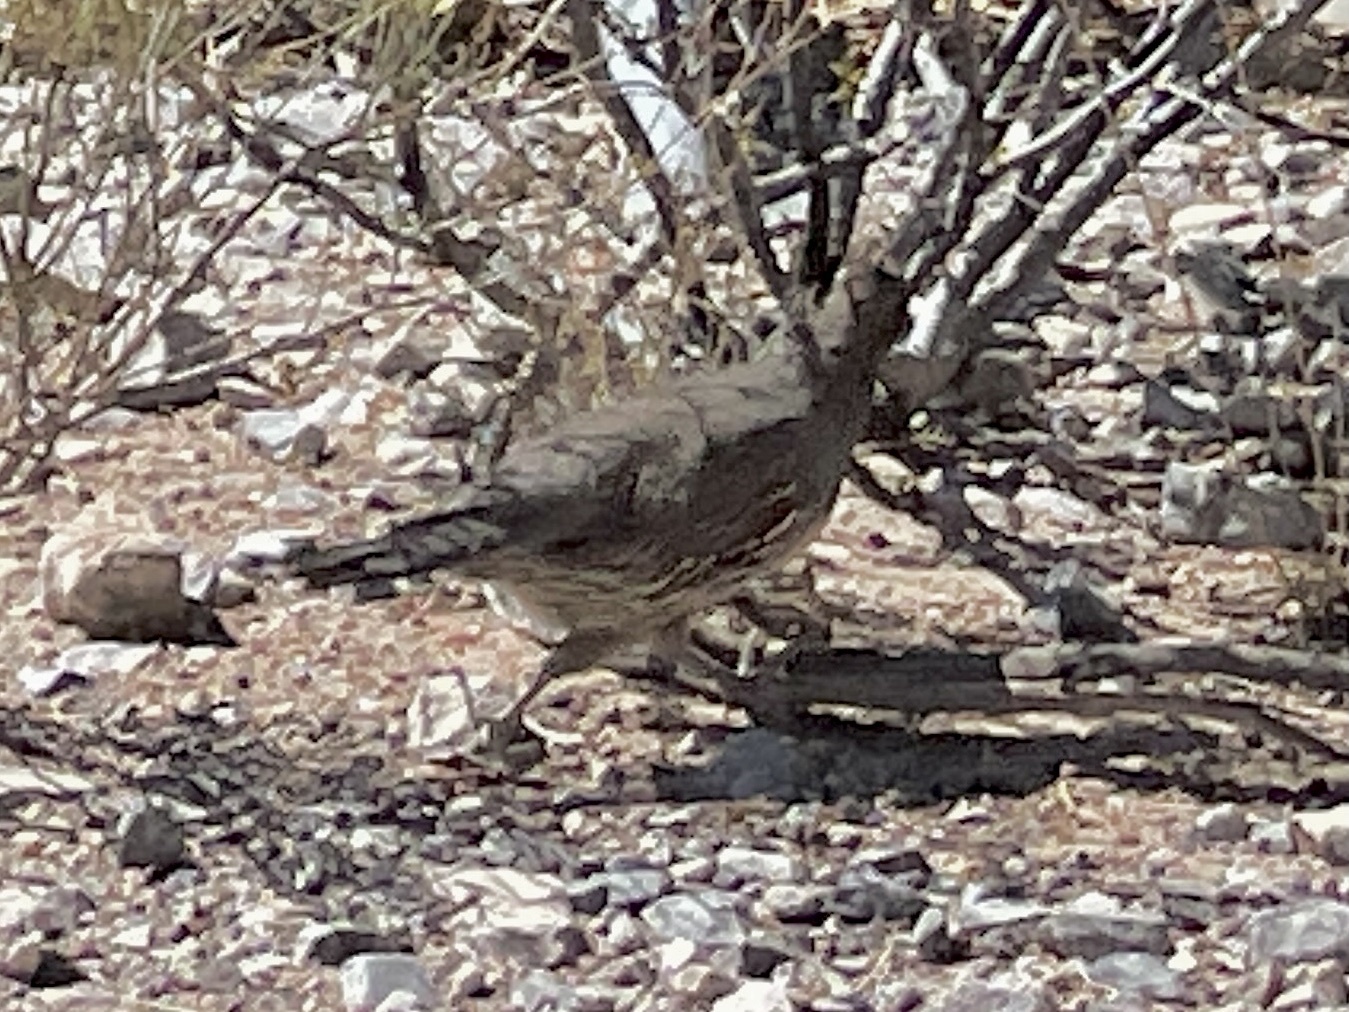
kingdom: Animalia
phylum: Chordata
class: Aves
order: Galliformes
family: Odontophoridae
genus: Callipepla
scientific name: Callipepla gambelii
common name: Gambel's quail
